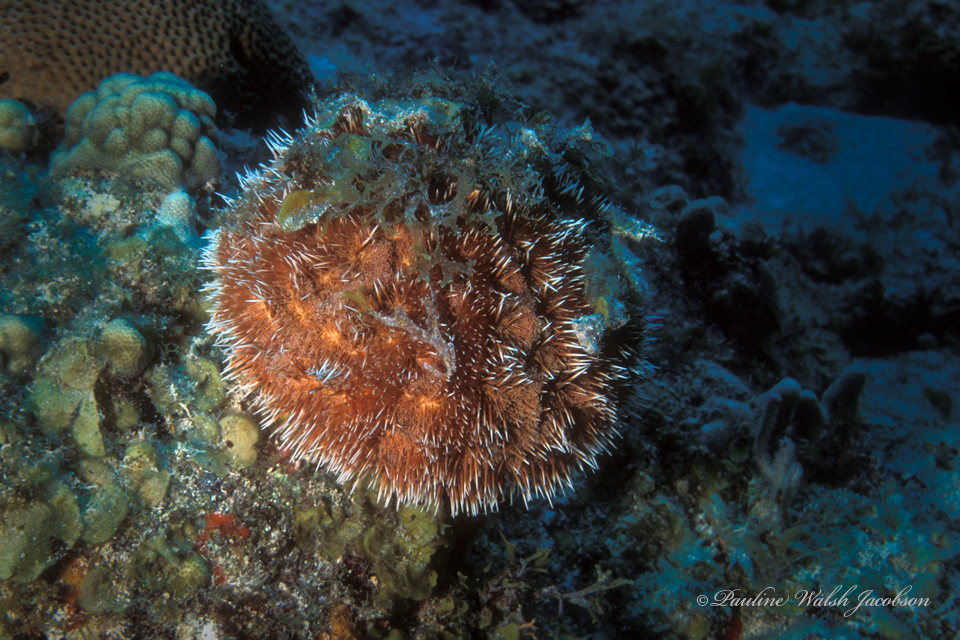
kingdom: Animalia
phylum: Echinodermata
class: Echinoidea
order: Camarodonta
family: Toxopneustidae
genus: Tripneustes
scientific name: Tripneustes ventricosus
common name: West indian sea egg
